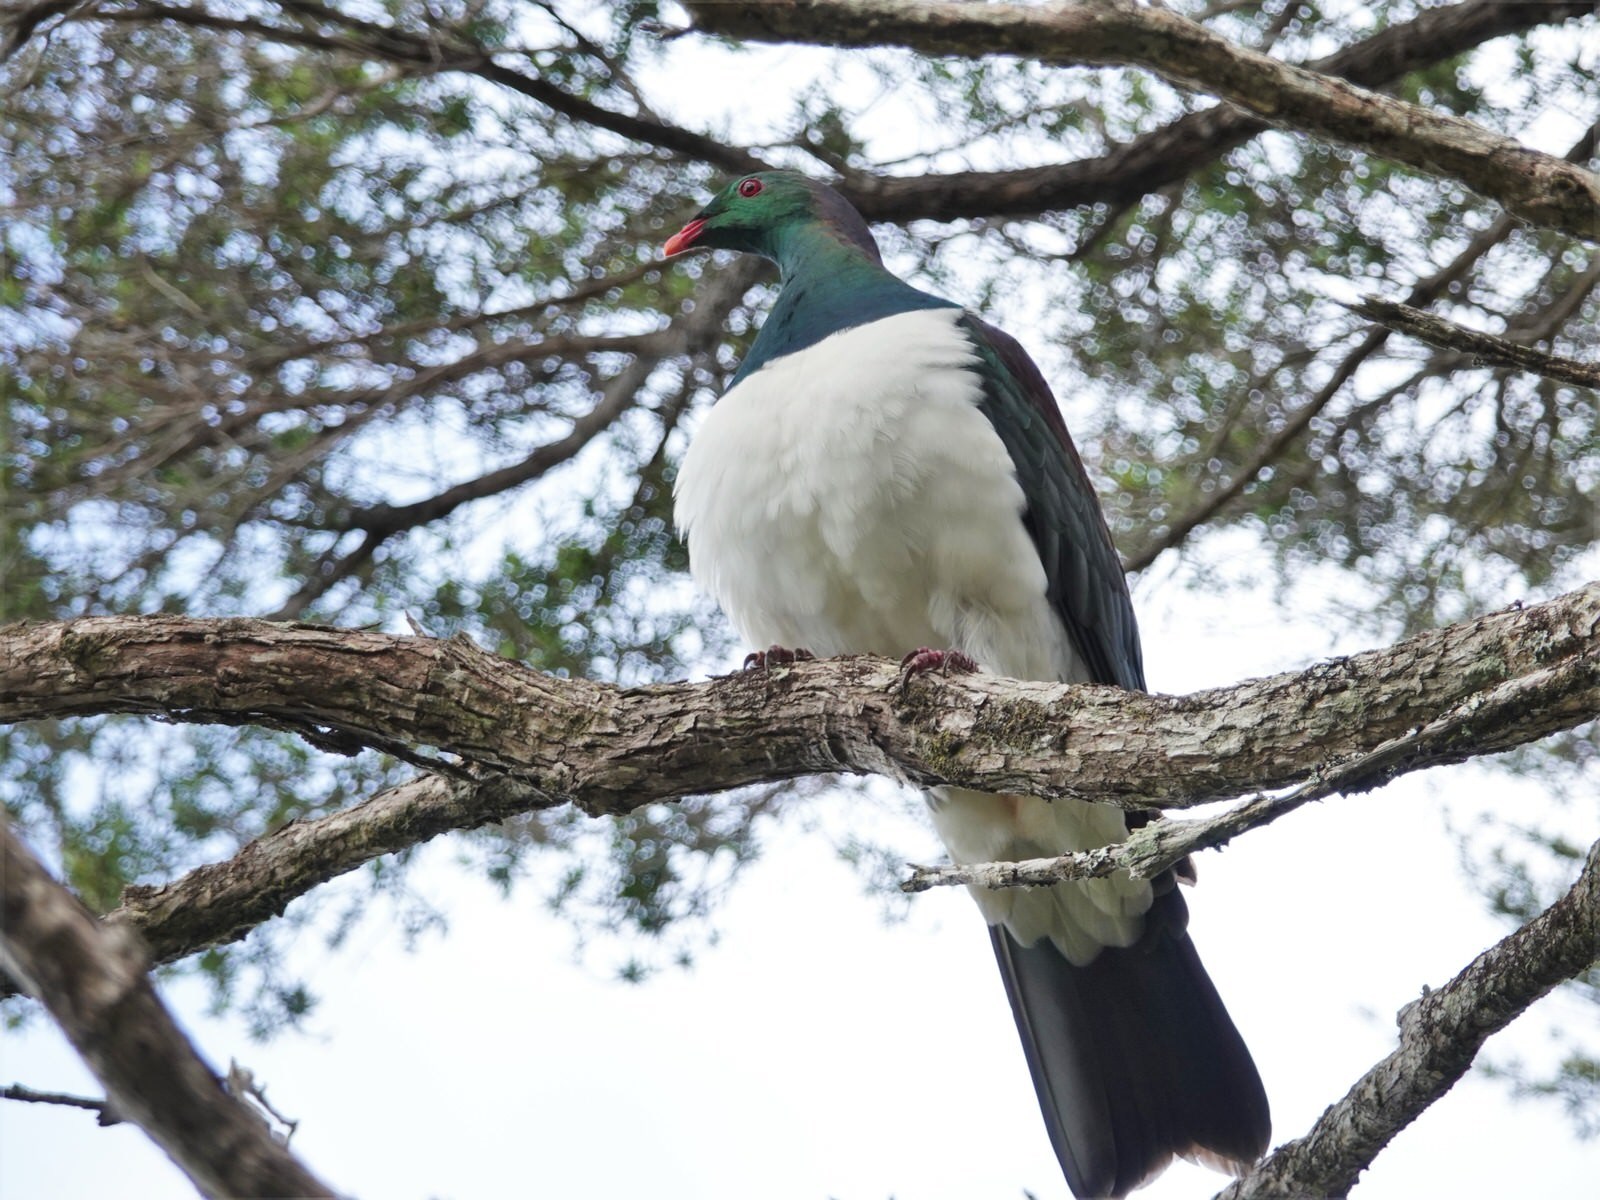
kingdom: Animalia
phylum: Chordata
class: Aves
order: Columbiformes
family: Columbidae
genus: Hemiphaga
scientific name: Hemiphaga novaeseelandiae
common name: New zealand pigeon
